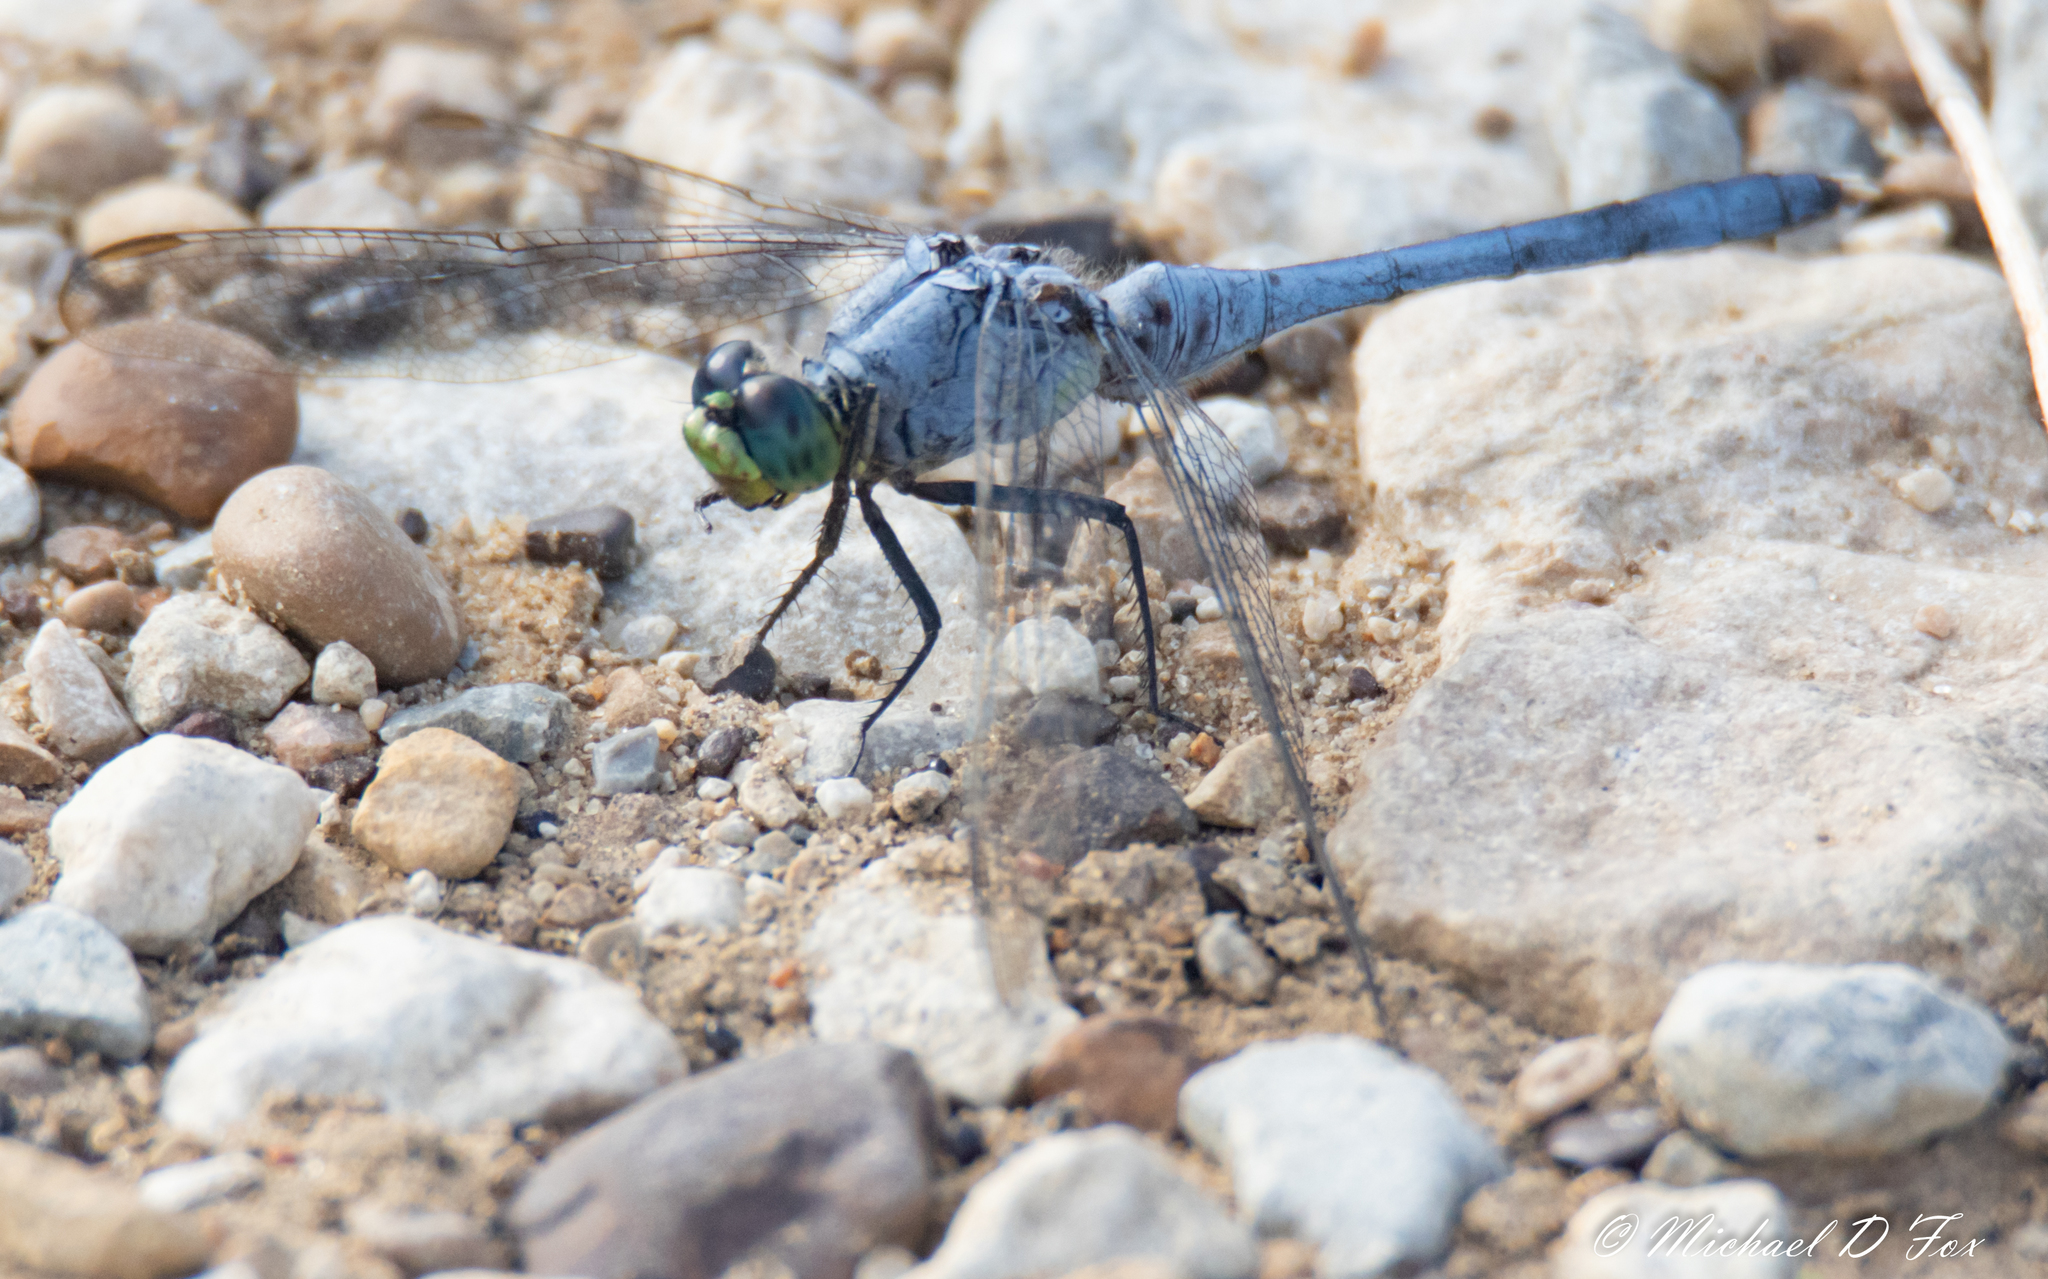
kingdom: Animalia
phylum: Arthropoda
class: Insecta
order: Odonata
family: Libellulidae
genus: Erythemis
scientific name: Erythemis simplicicollis
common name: Eastern pondhawk
